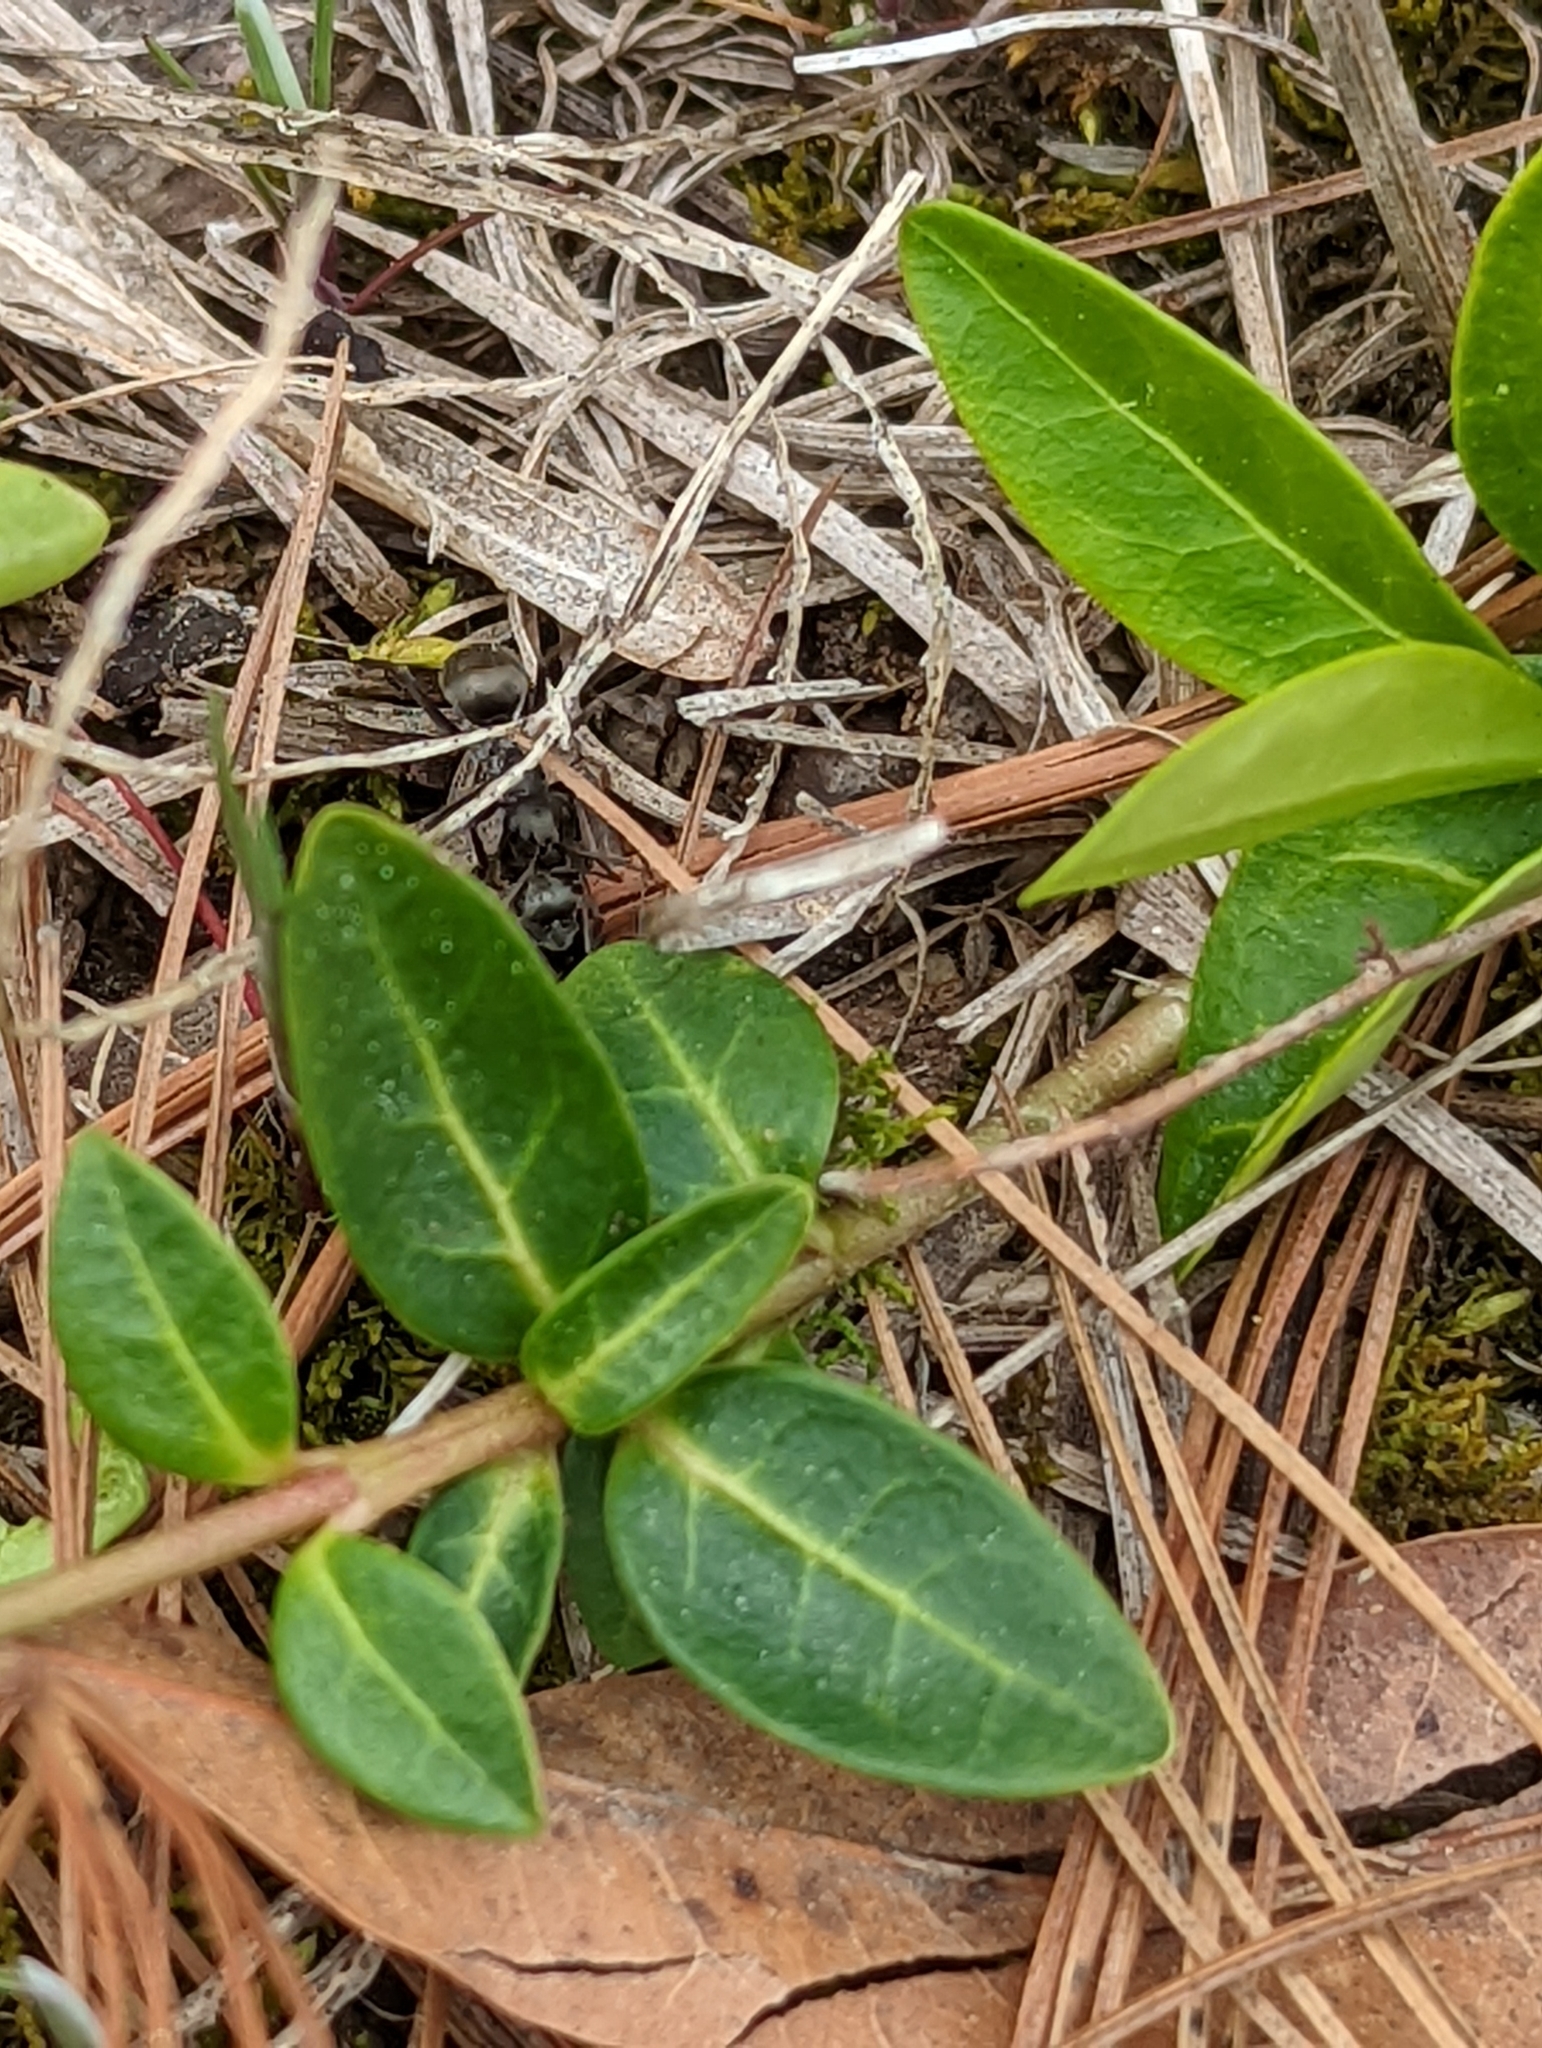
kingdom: Plantae
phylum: Tracheophyta
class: Magnoliopsida
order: Gentianales
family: Apocynaceae
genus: Vinca
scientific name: Vinca minor
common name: Lesser periwinkle
